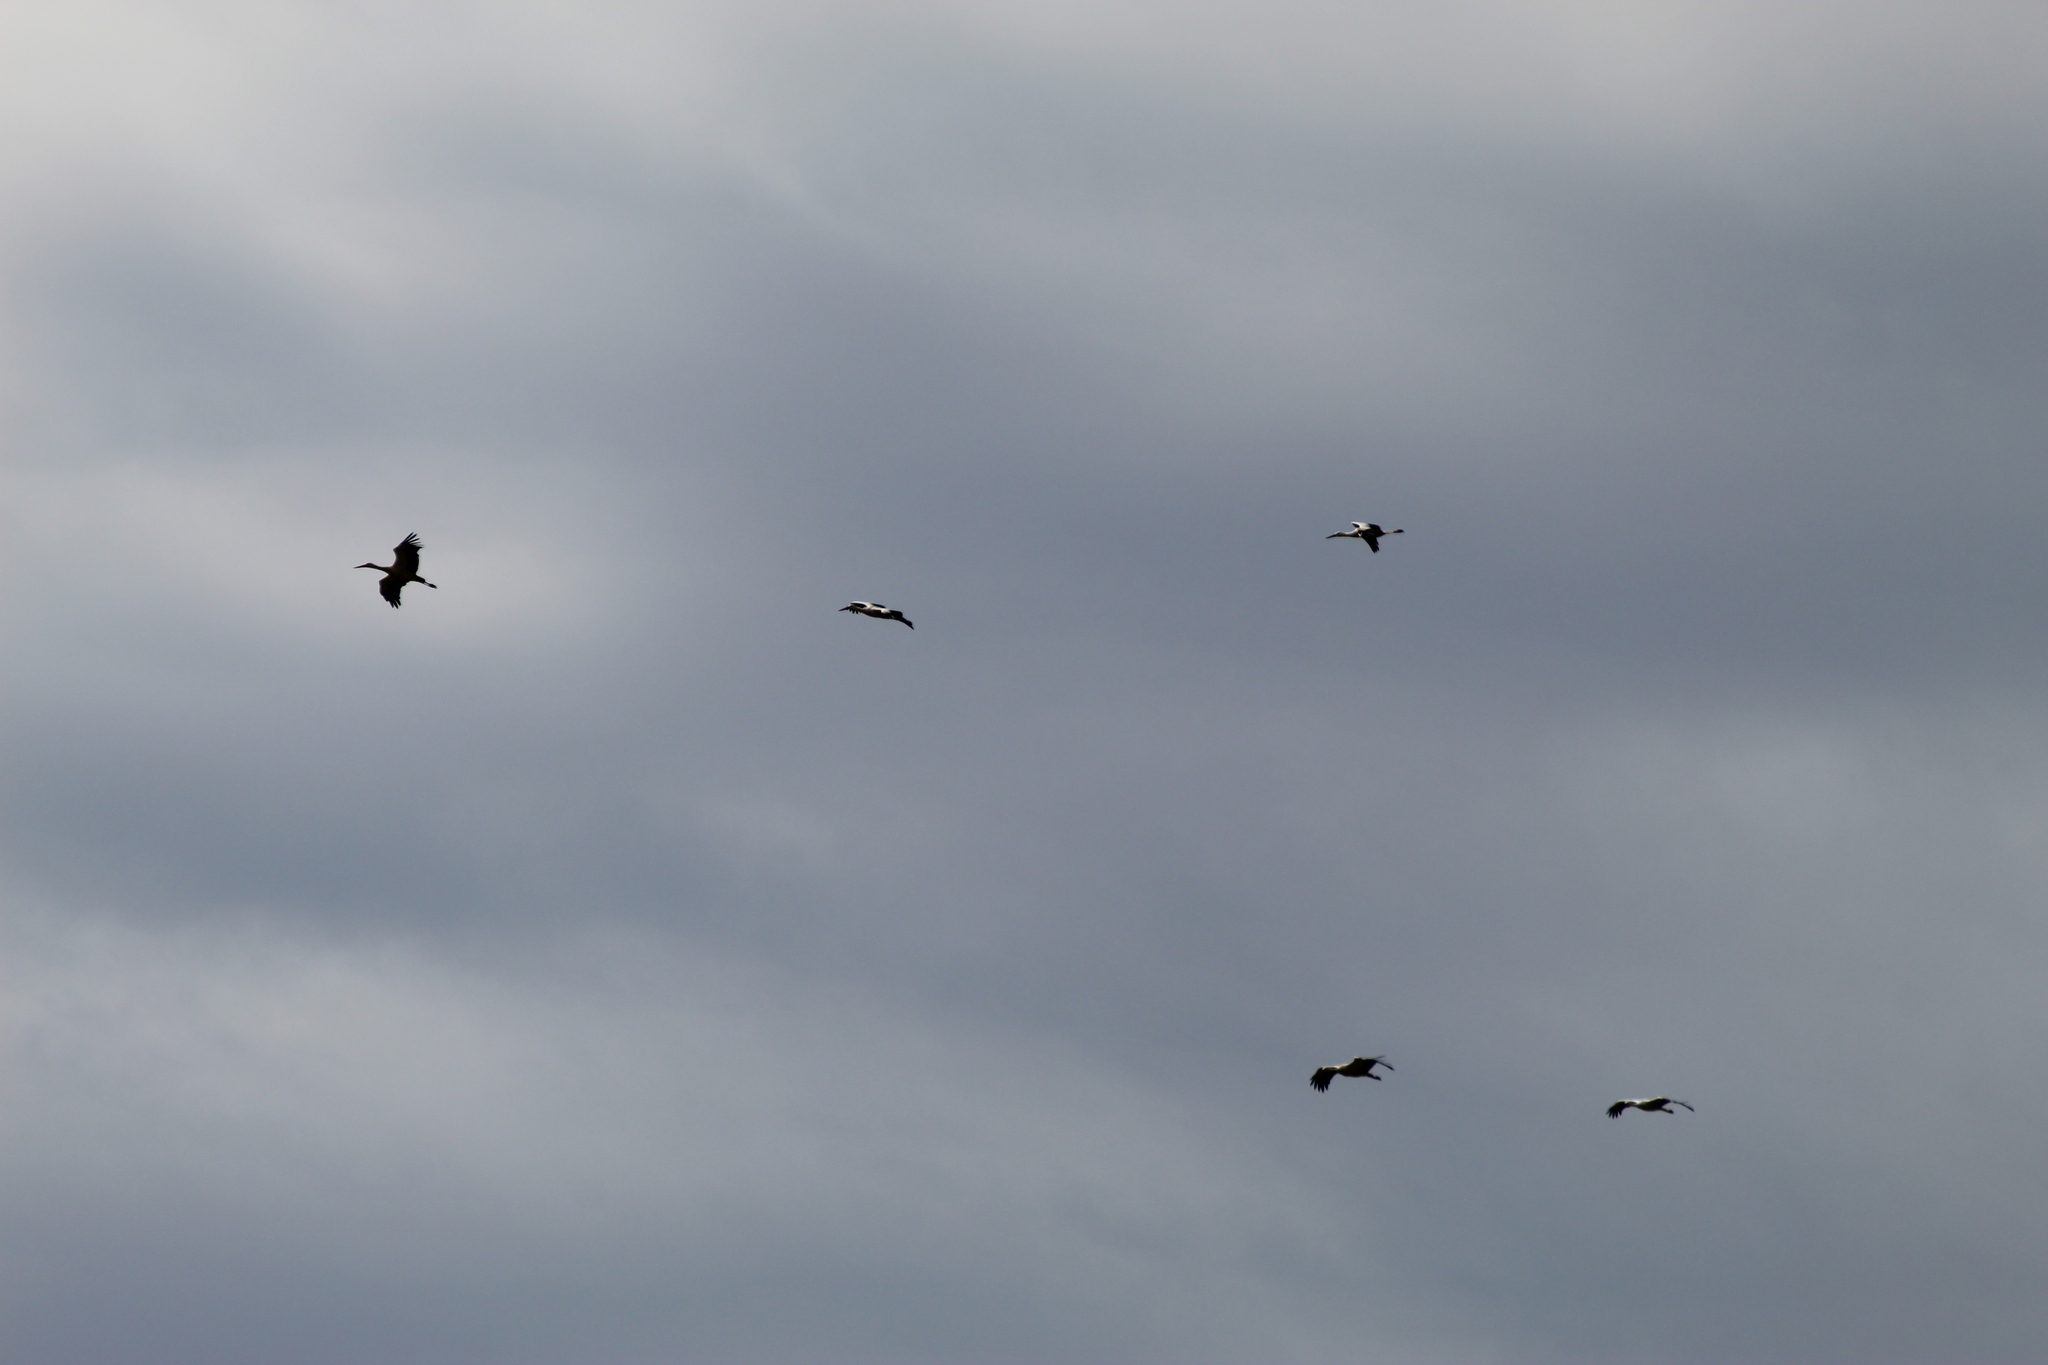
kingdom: Animalia
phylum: Chordata
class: Aves
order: Ciconiiformes
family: Ciconiidae
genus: Ciconia
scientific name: Ciconia ciconia
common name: White stork
